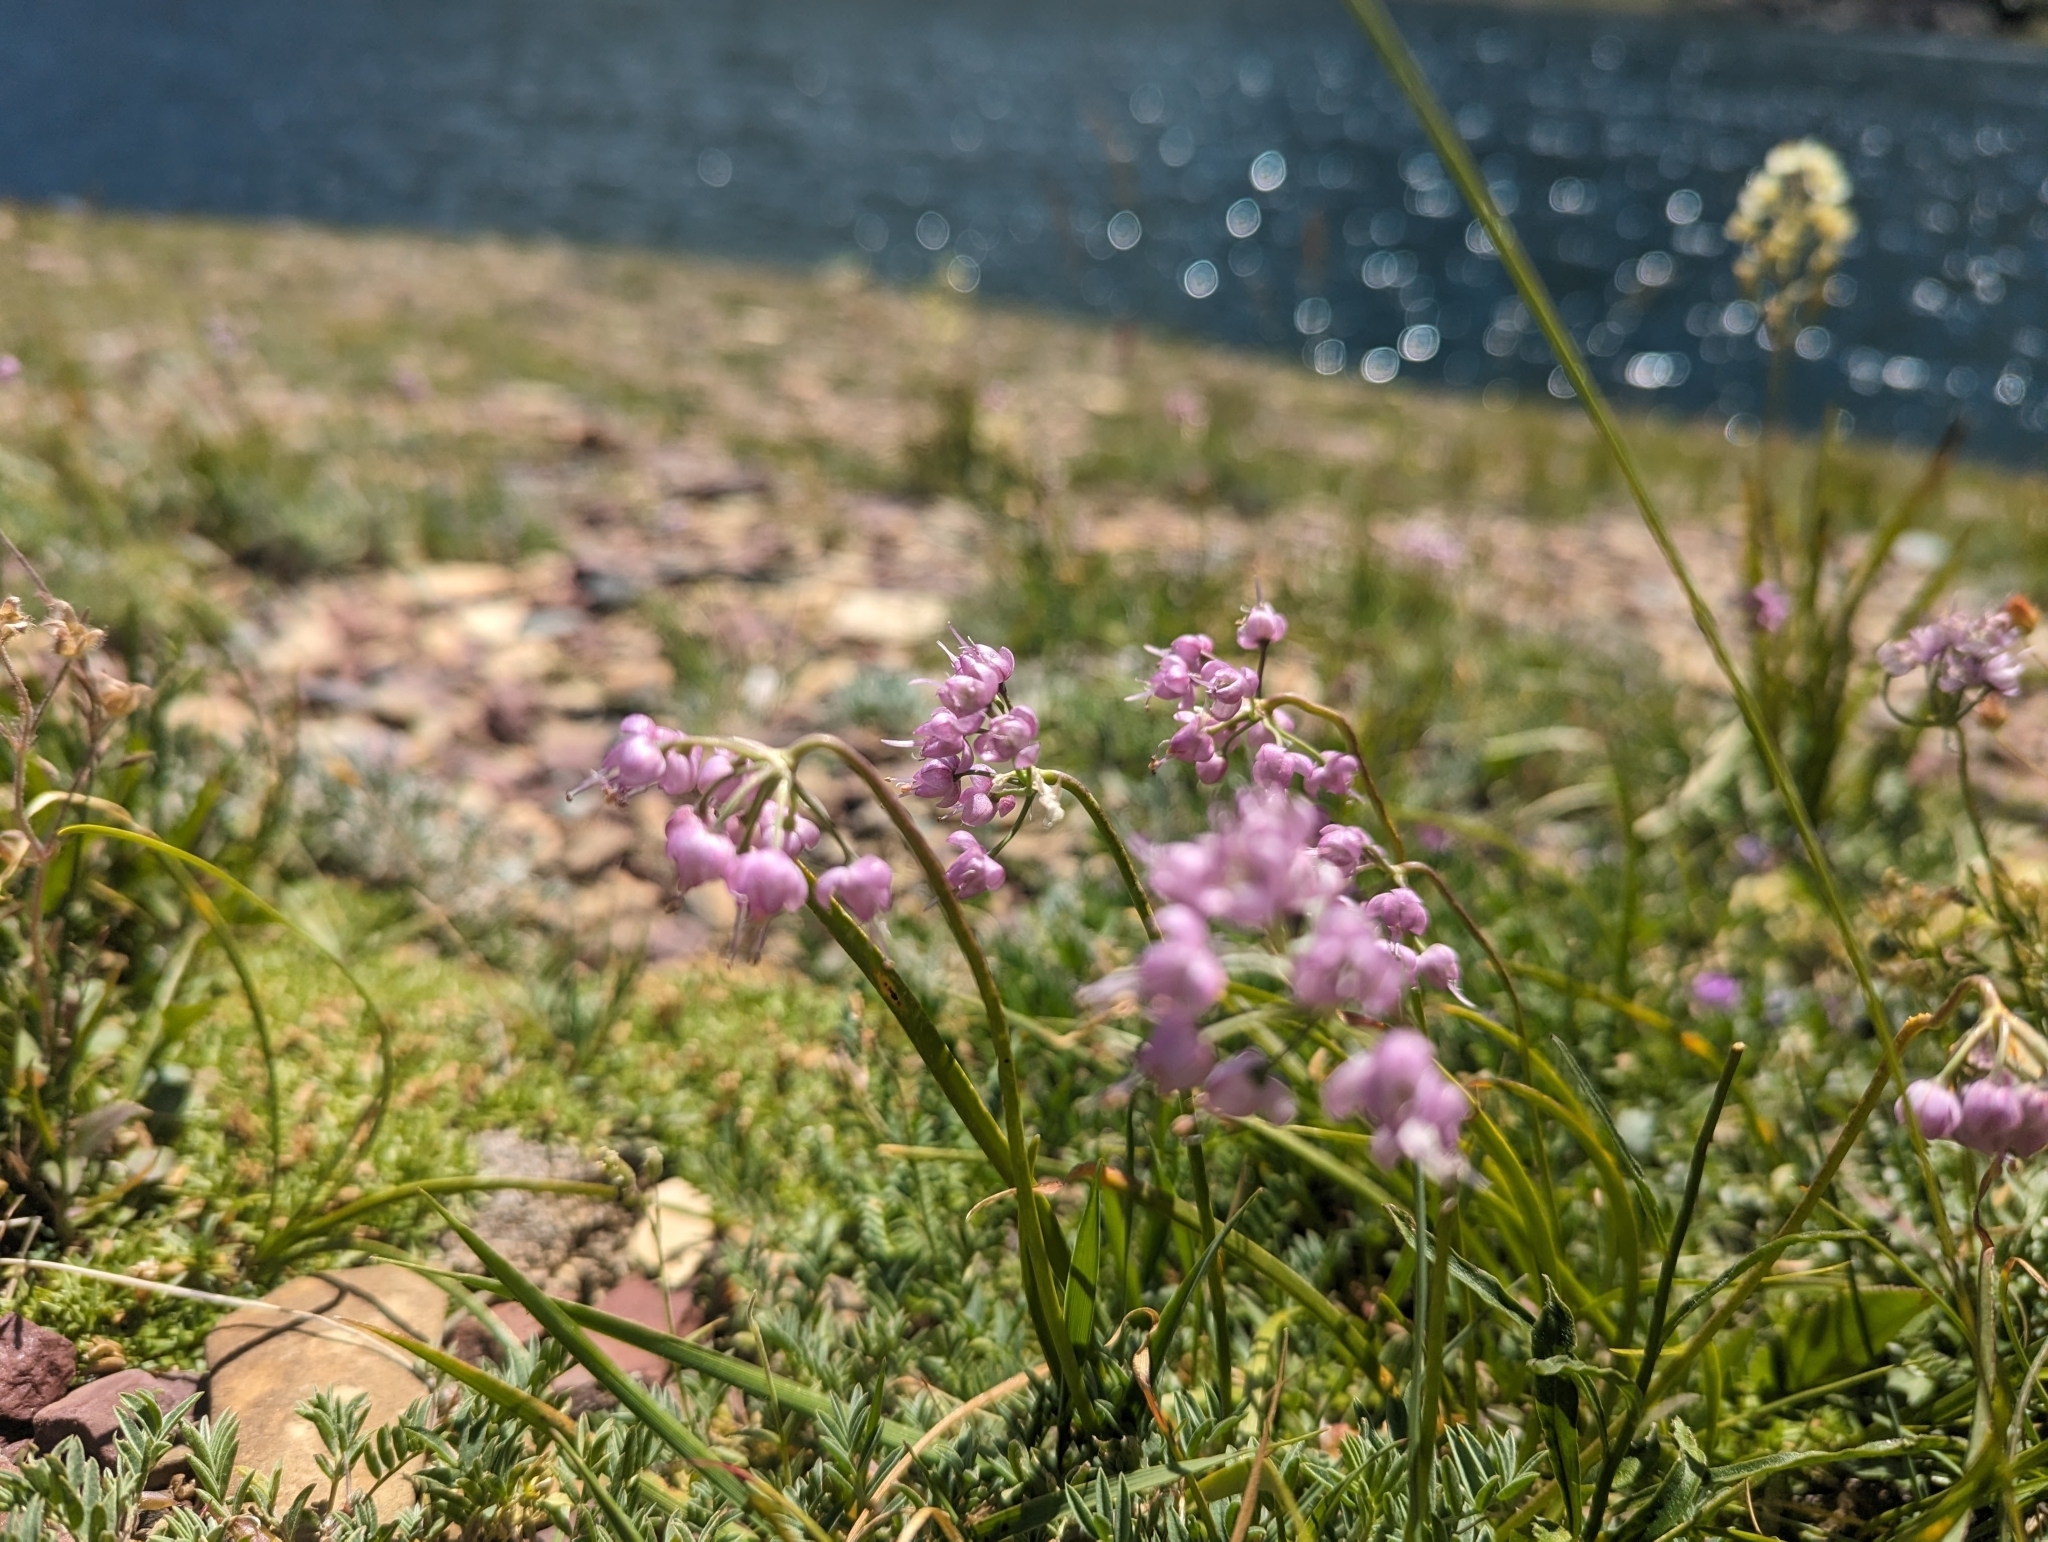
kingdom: Plantae
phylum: Tracheophyta
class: Liliopsida
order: Asparagales
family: Amaryllidaceae
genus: Allium
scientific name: Allium cernuum
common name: Nodding onion
